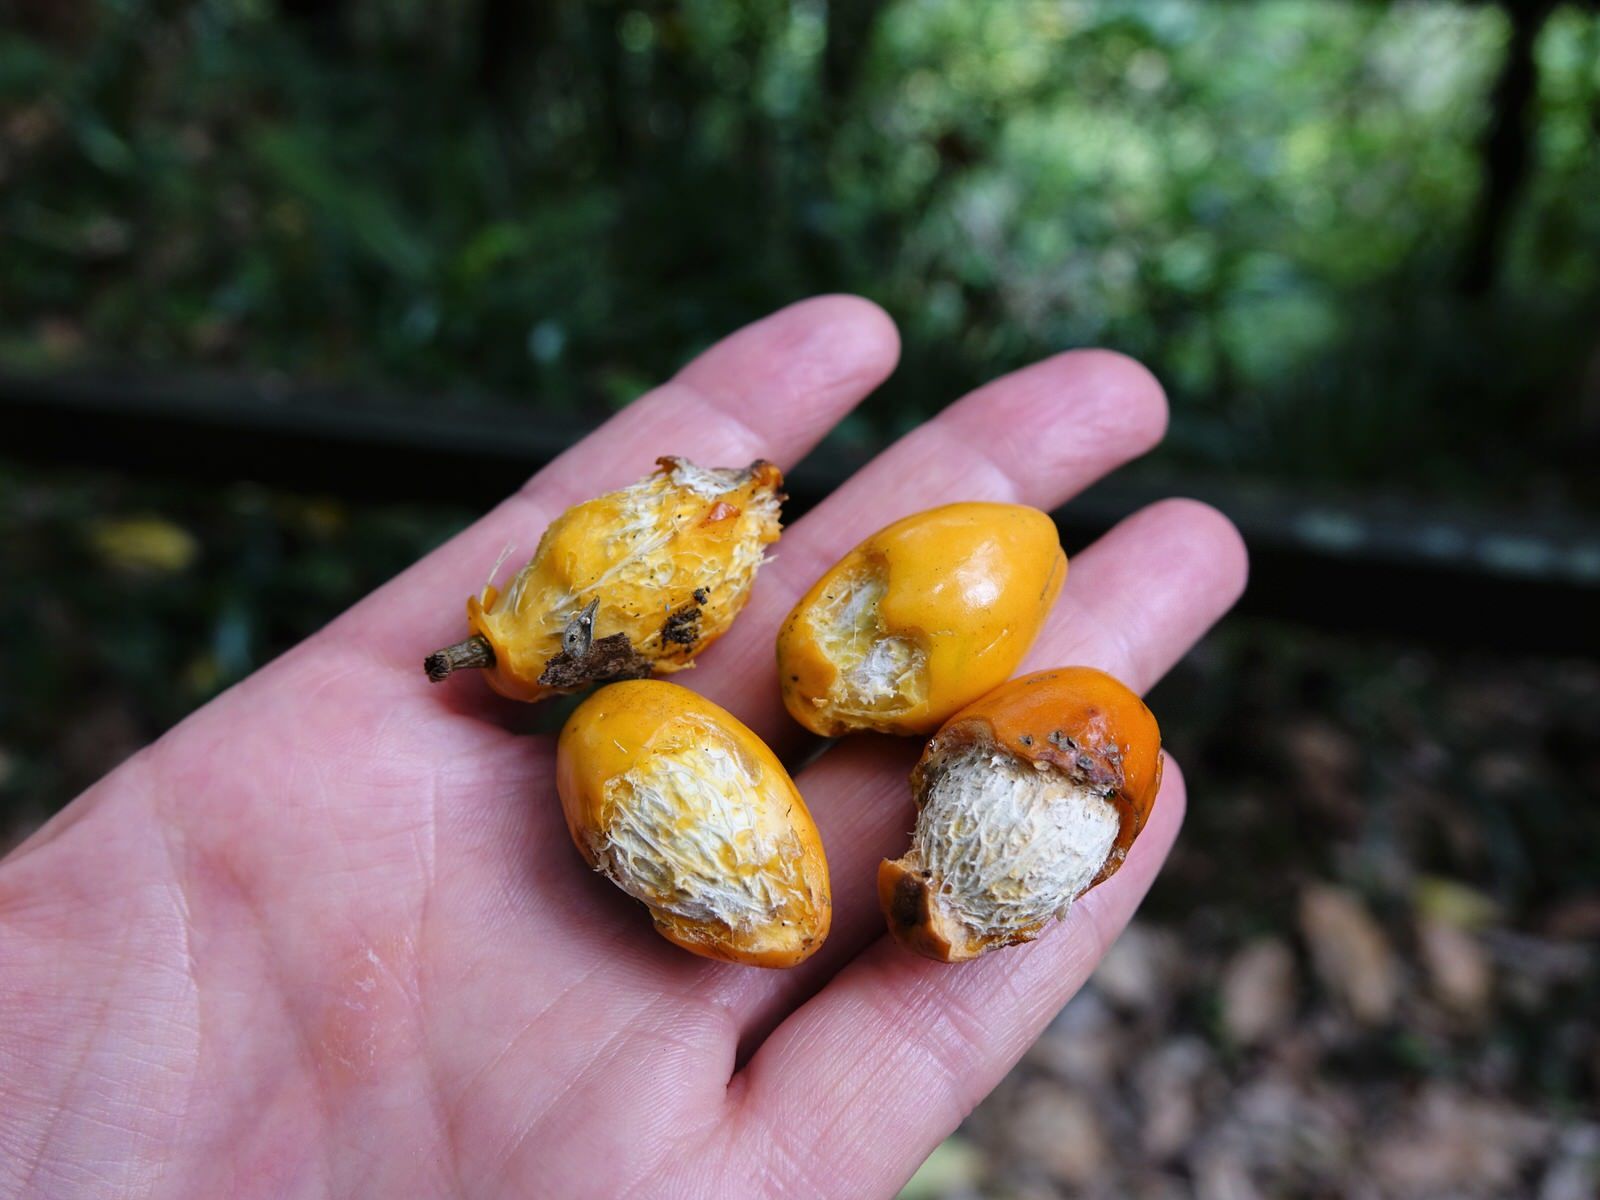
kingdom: Plantae
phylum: Tracheophyta
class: Magnoliopsida
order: Cucurbitales
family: Corynocarpaceae
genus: Corynocarpus
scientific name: Corynocarpus laevigatus
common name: New zealand laurel
